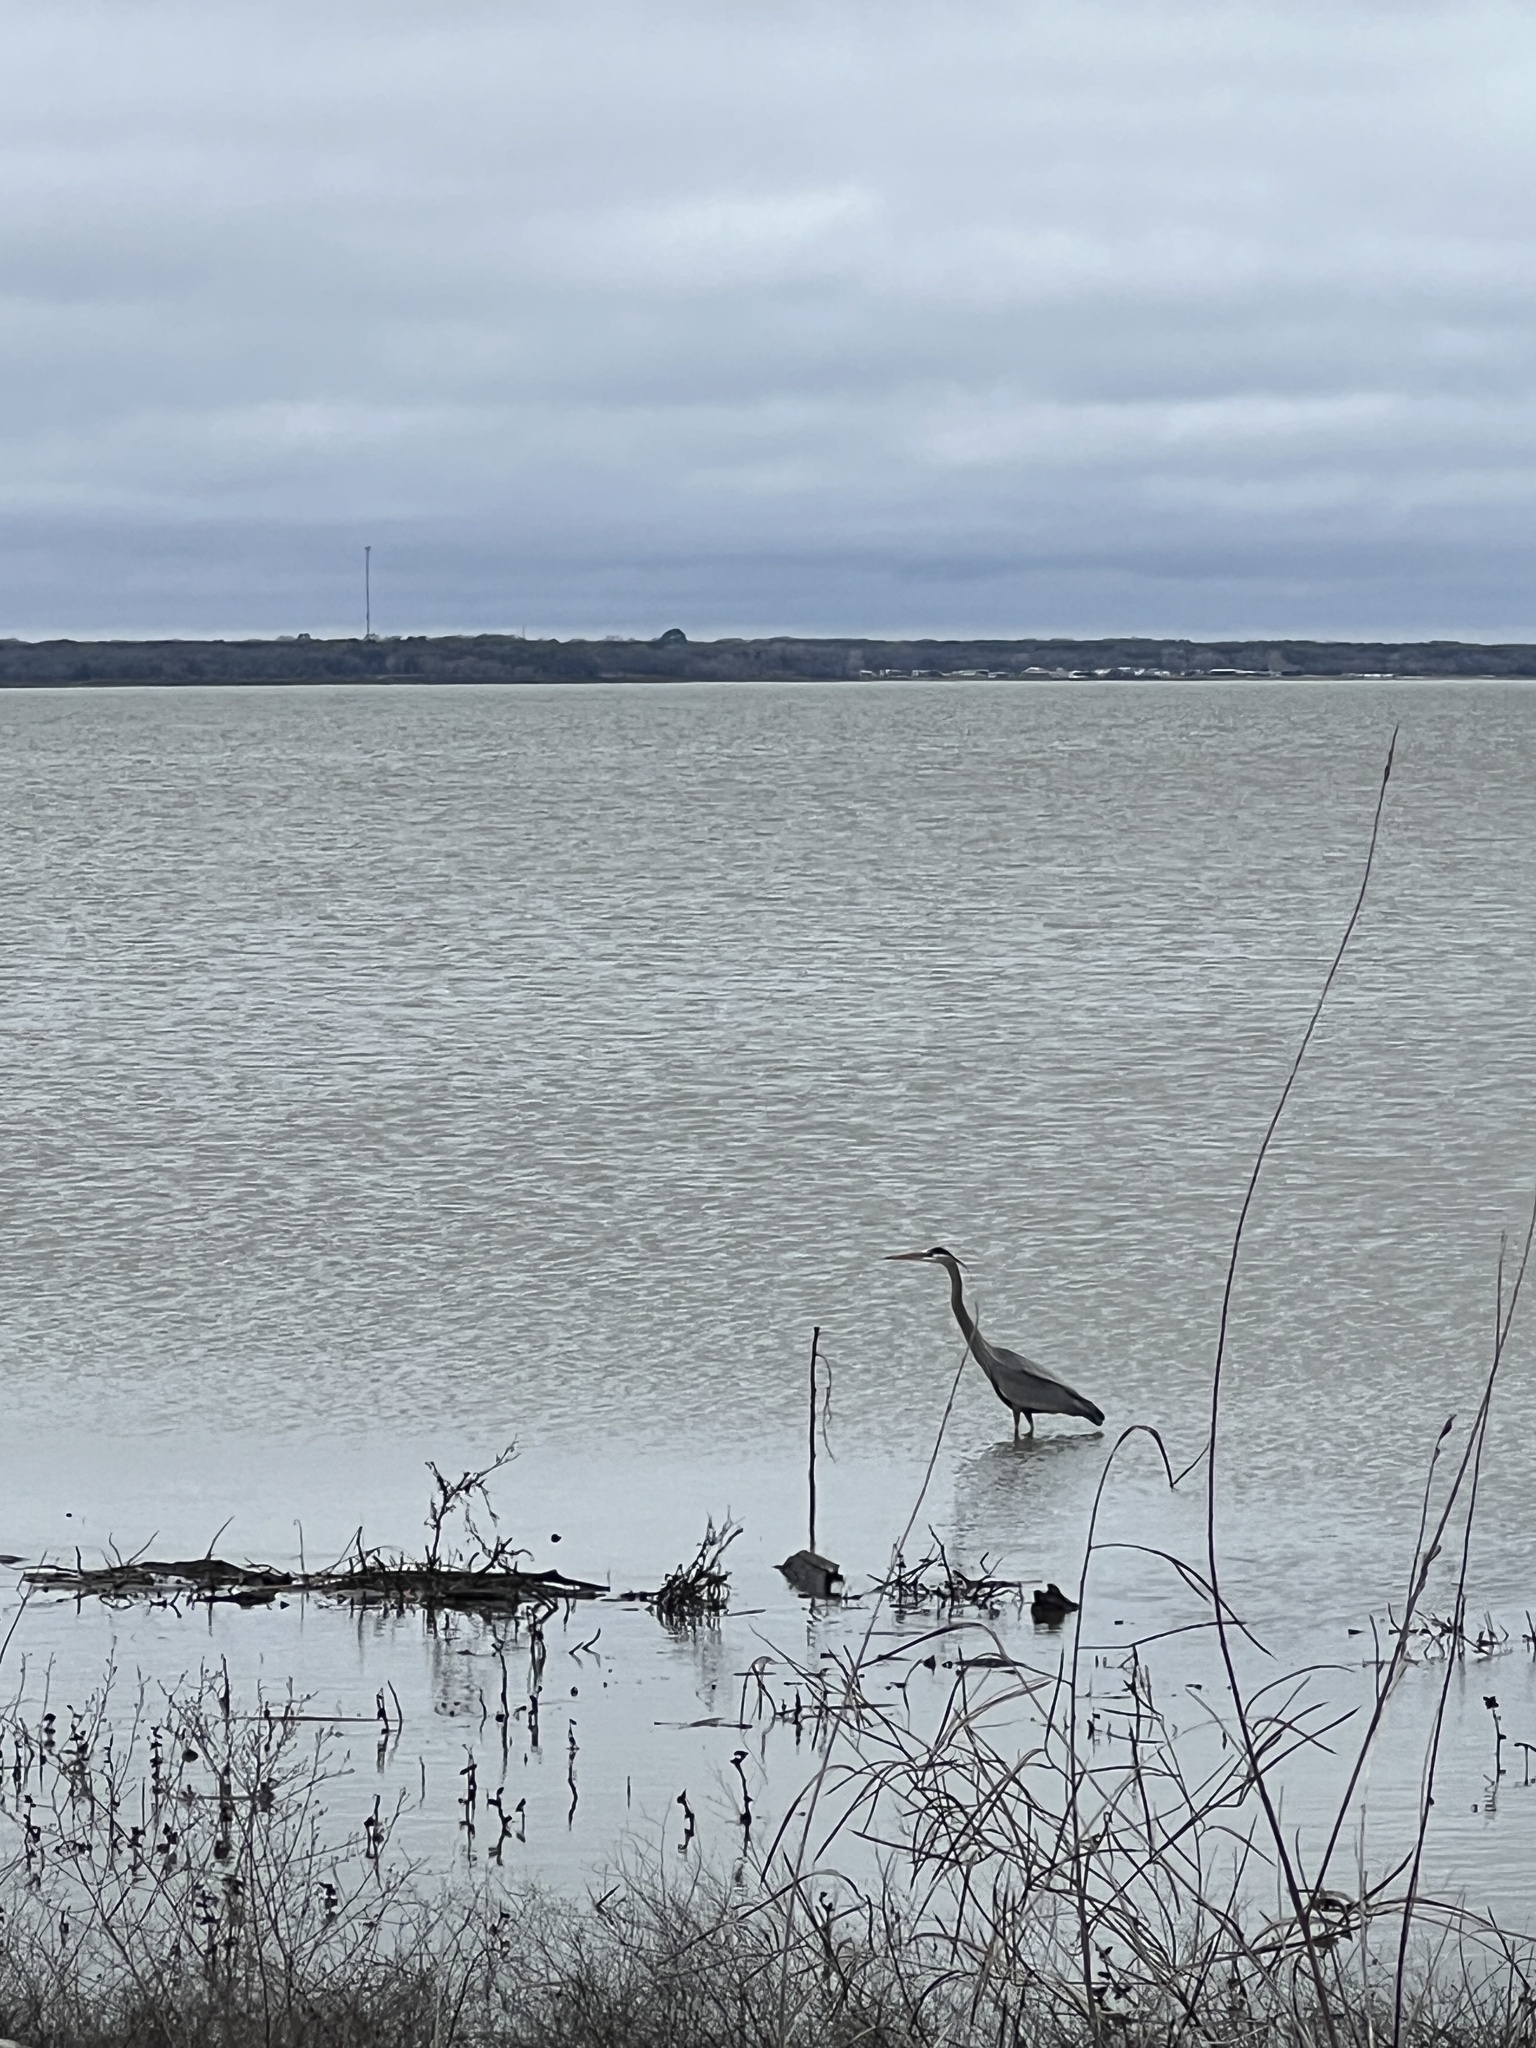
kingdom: Animalia
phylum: Chordata
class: Aves
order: Pelecaniformes
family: Ardeidae
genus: Ardea
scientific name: Ardea herodias
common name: Great blue heron
